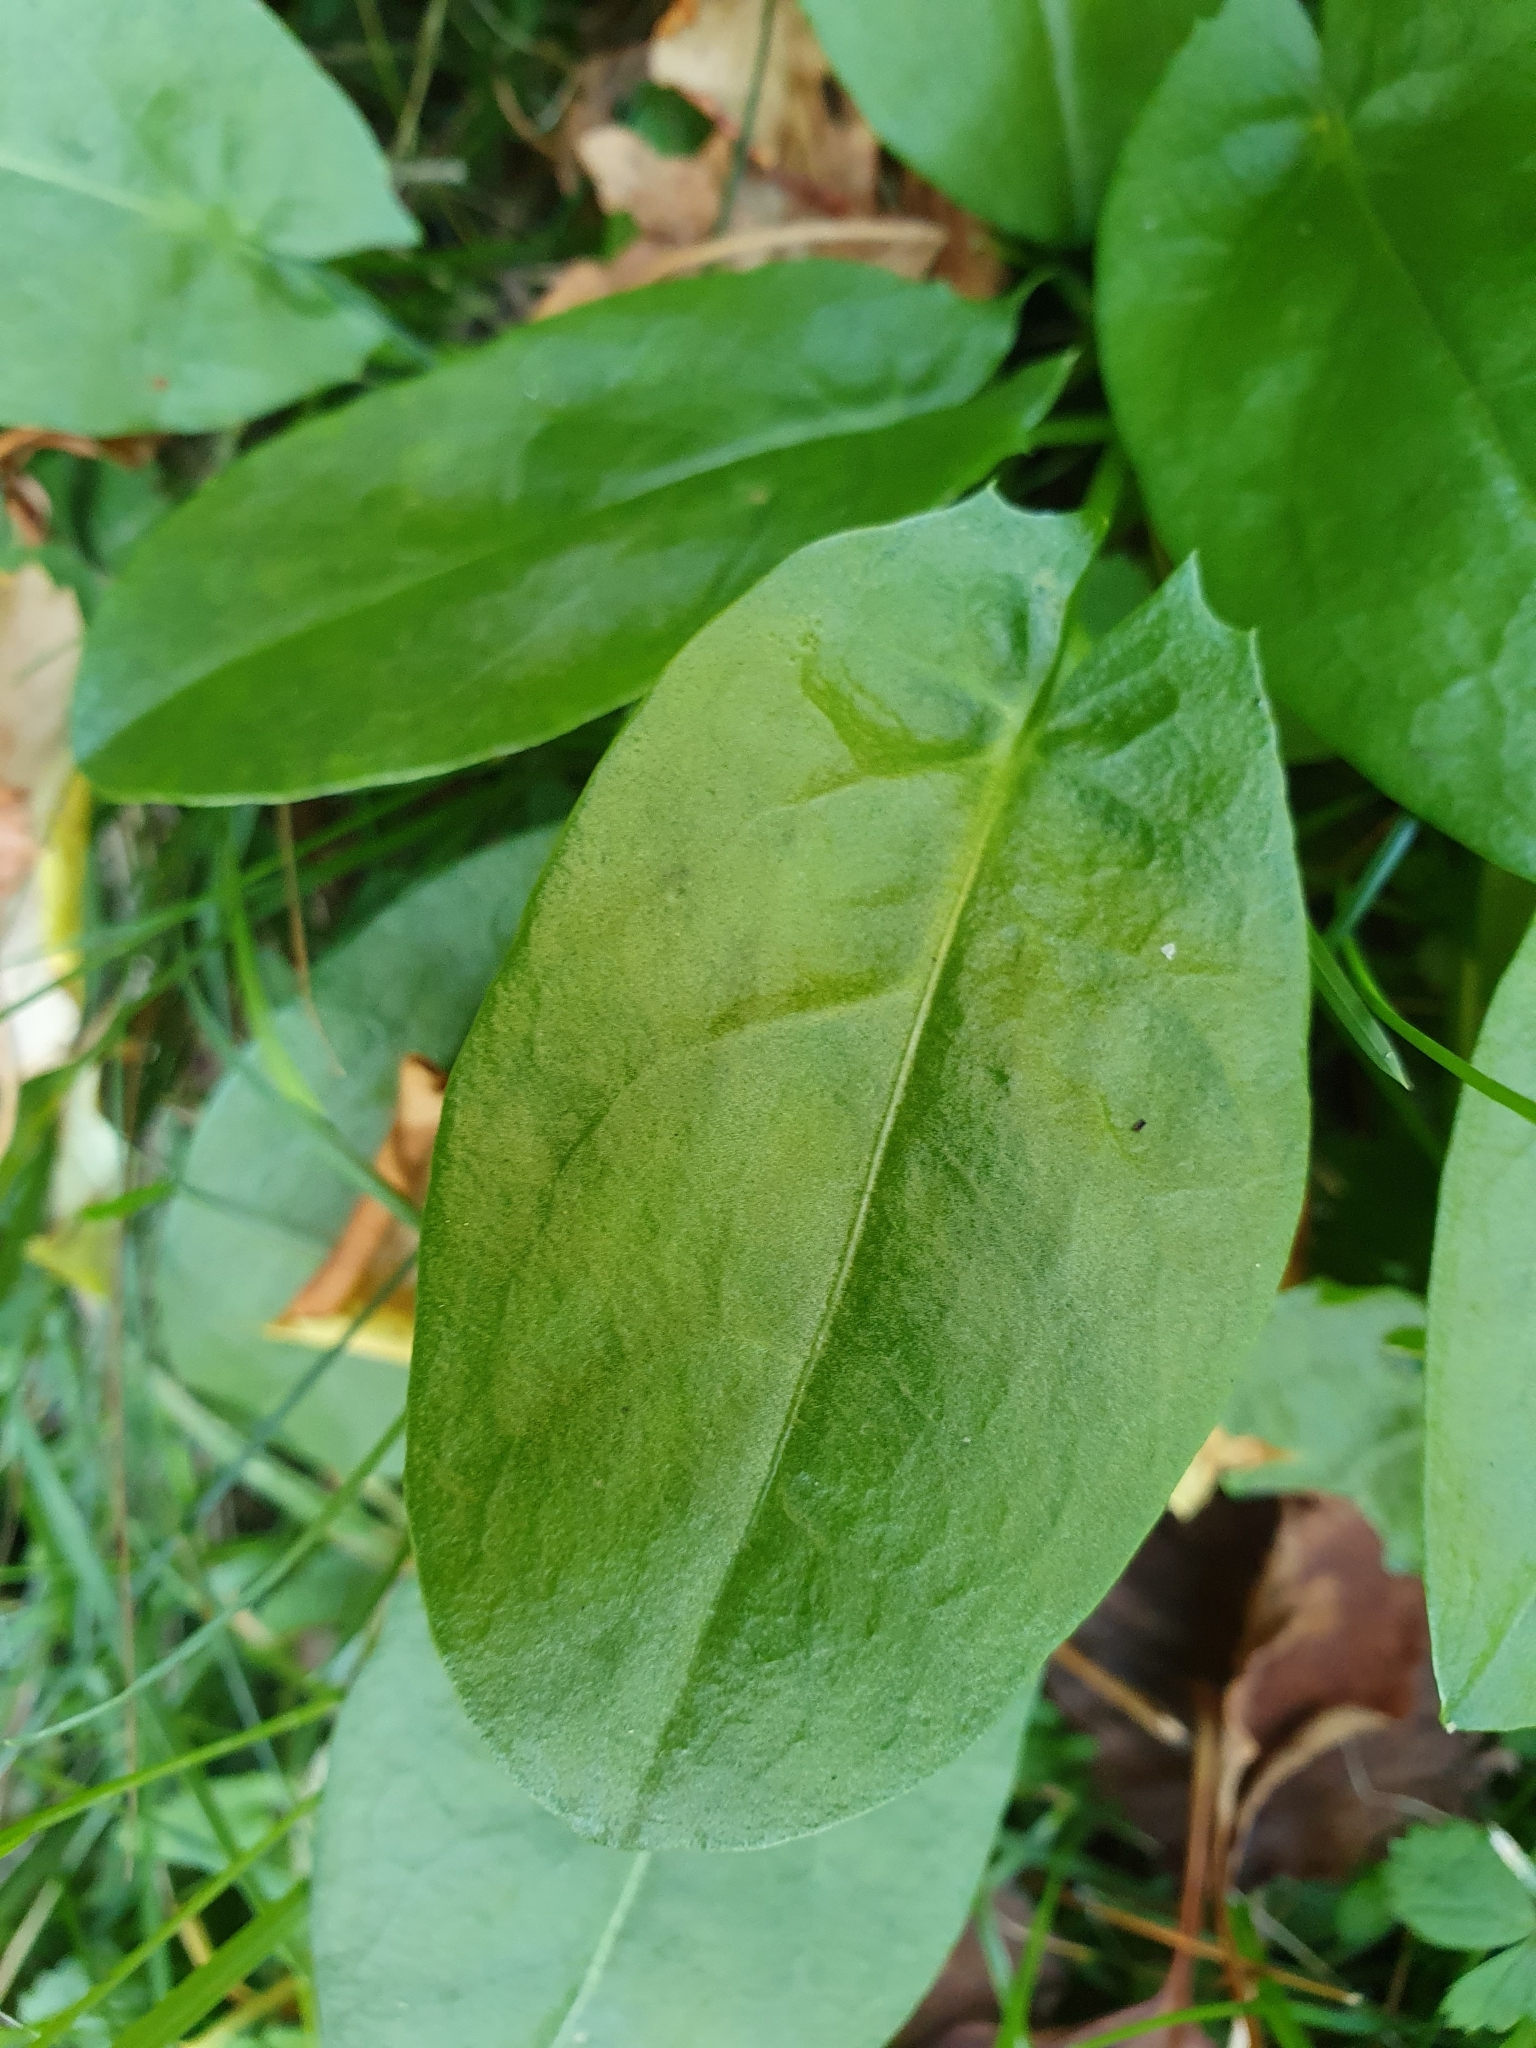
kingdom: Plantae
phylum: Tracheophyta
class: Magnoliopsida
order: Caryophyllales
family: Polygonaceae
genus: Rumex
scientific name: Rumex acetosa
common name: Garden sorrel
